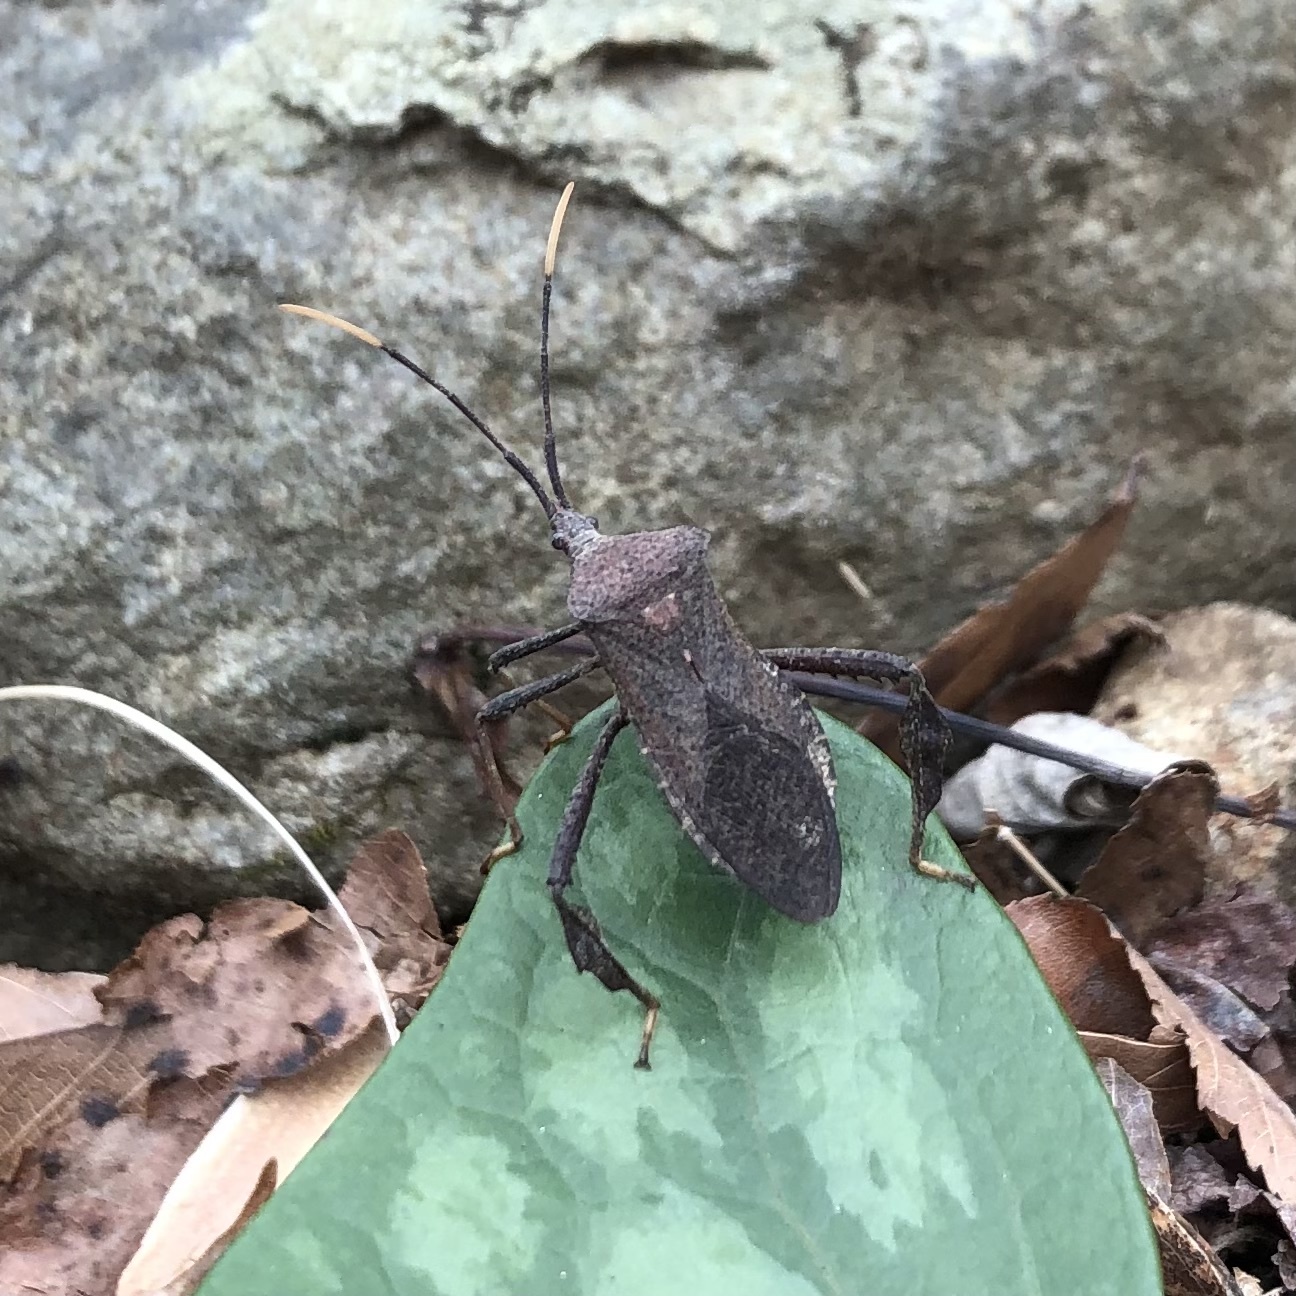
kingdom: Animalia
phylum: Arthropoda
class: Insecta
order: Hemiptera
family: Coreidae
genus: Acanthocephala
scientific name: Acanthocephala terminalis
